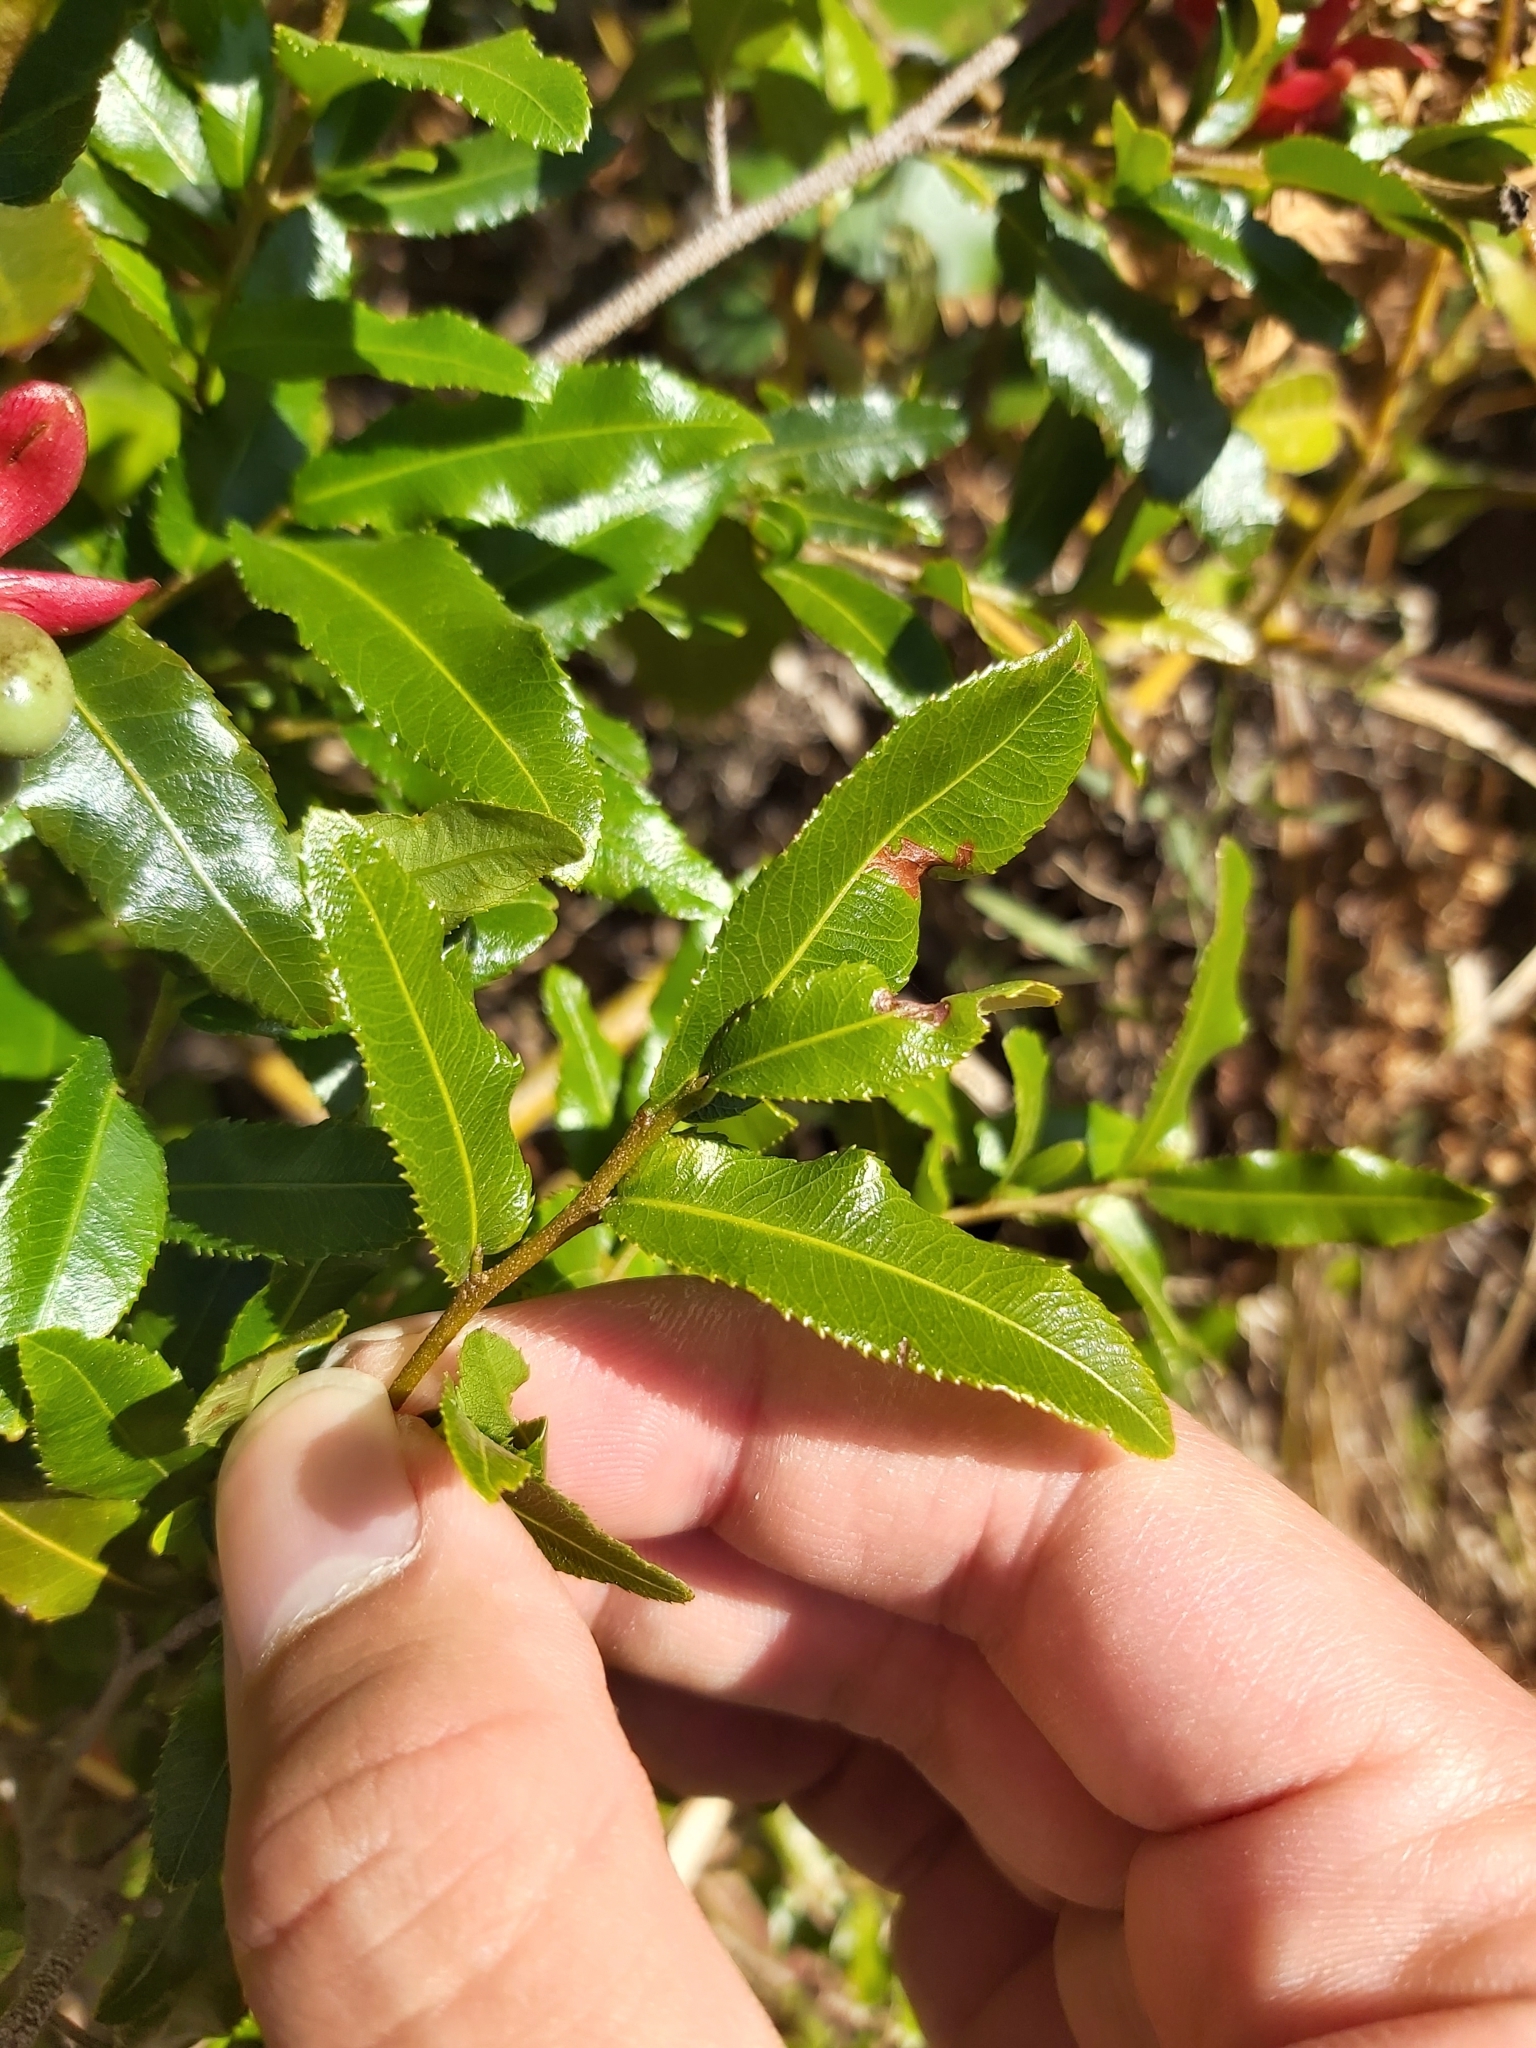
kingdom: Plantae
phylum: Tracheophyta
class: Magnoliopsida
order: Malpighiales
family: Ochnaceae
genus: Ochna
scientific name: Ochna serrulata
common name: Mickey mouse plant
